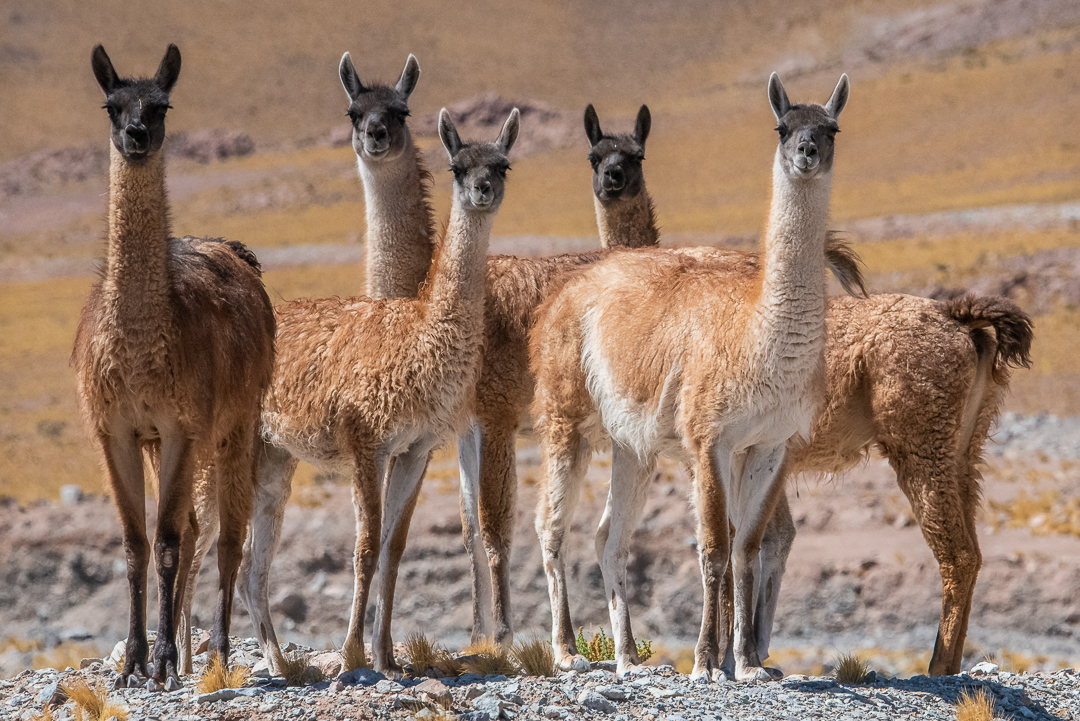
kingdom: Animalia
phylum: Chordata
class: Mammalia
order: Artiodactyla
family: Camelidae
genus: Lama
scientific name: Lama glama
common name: Llama
